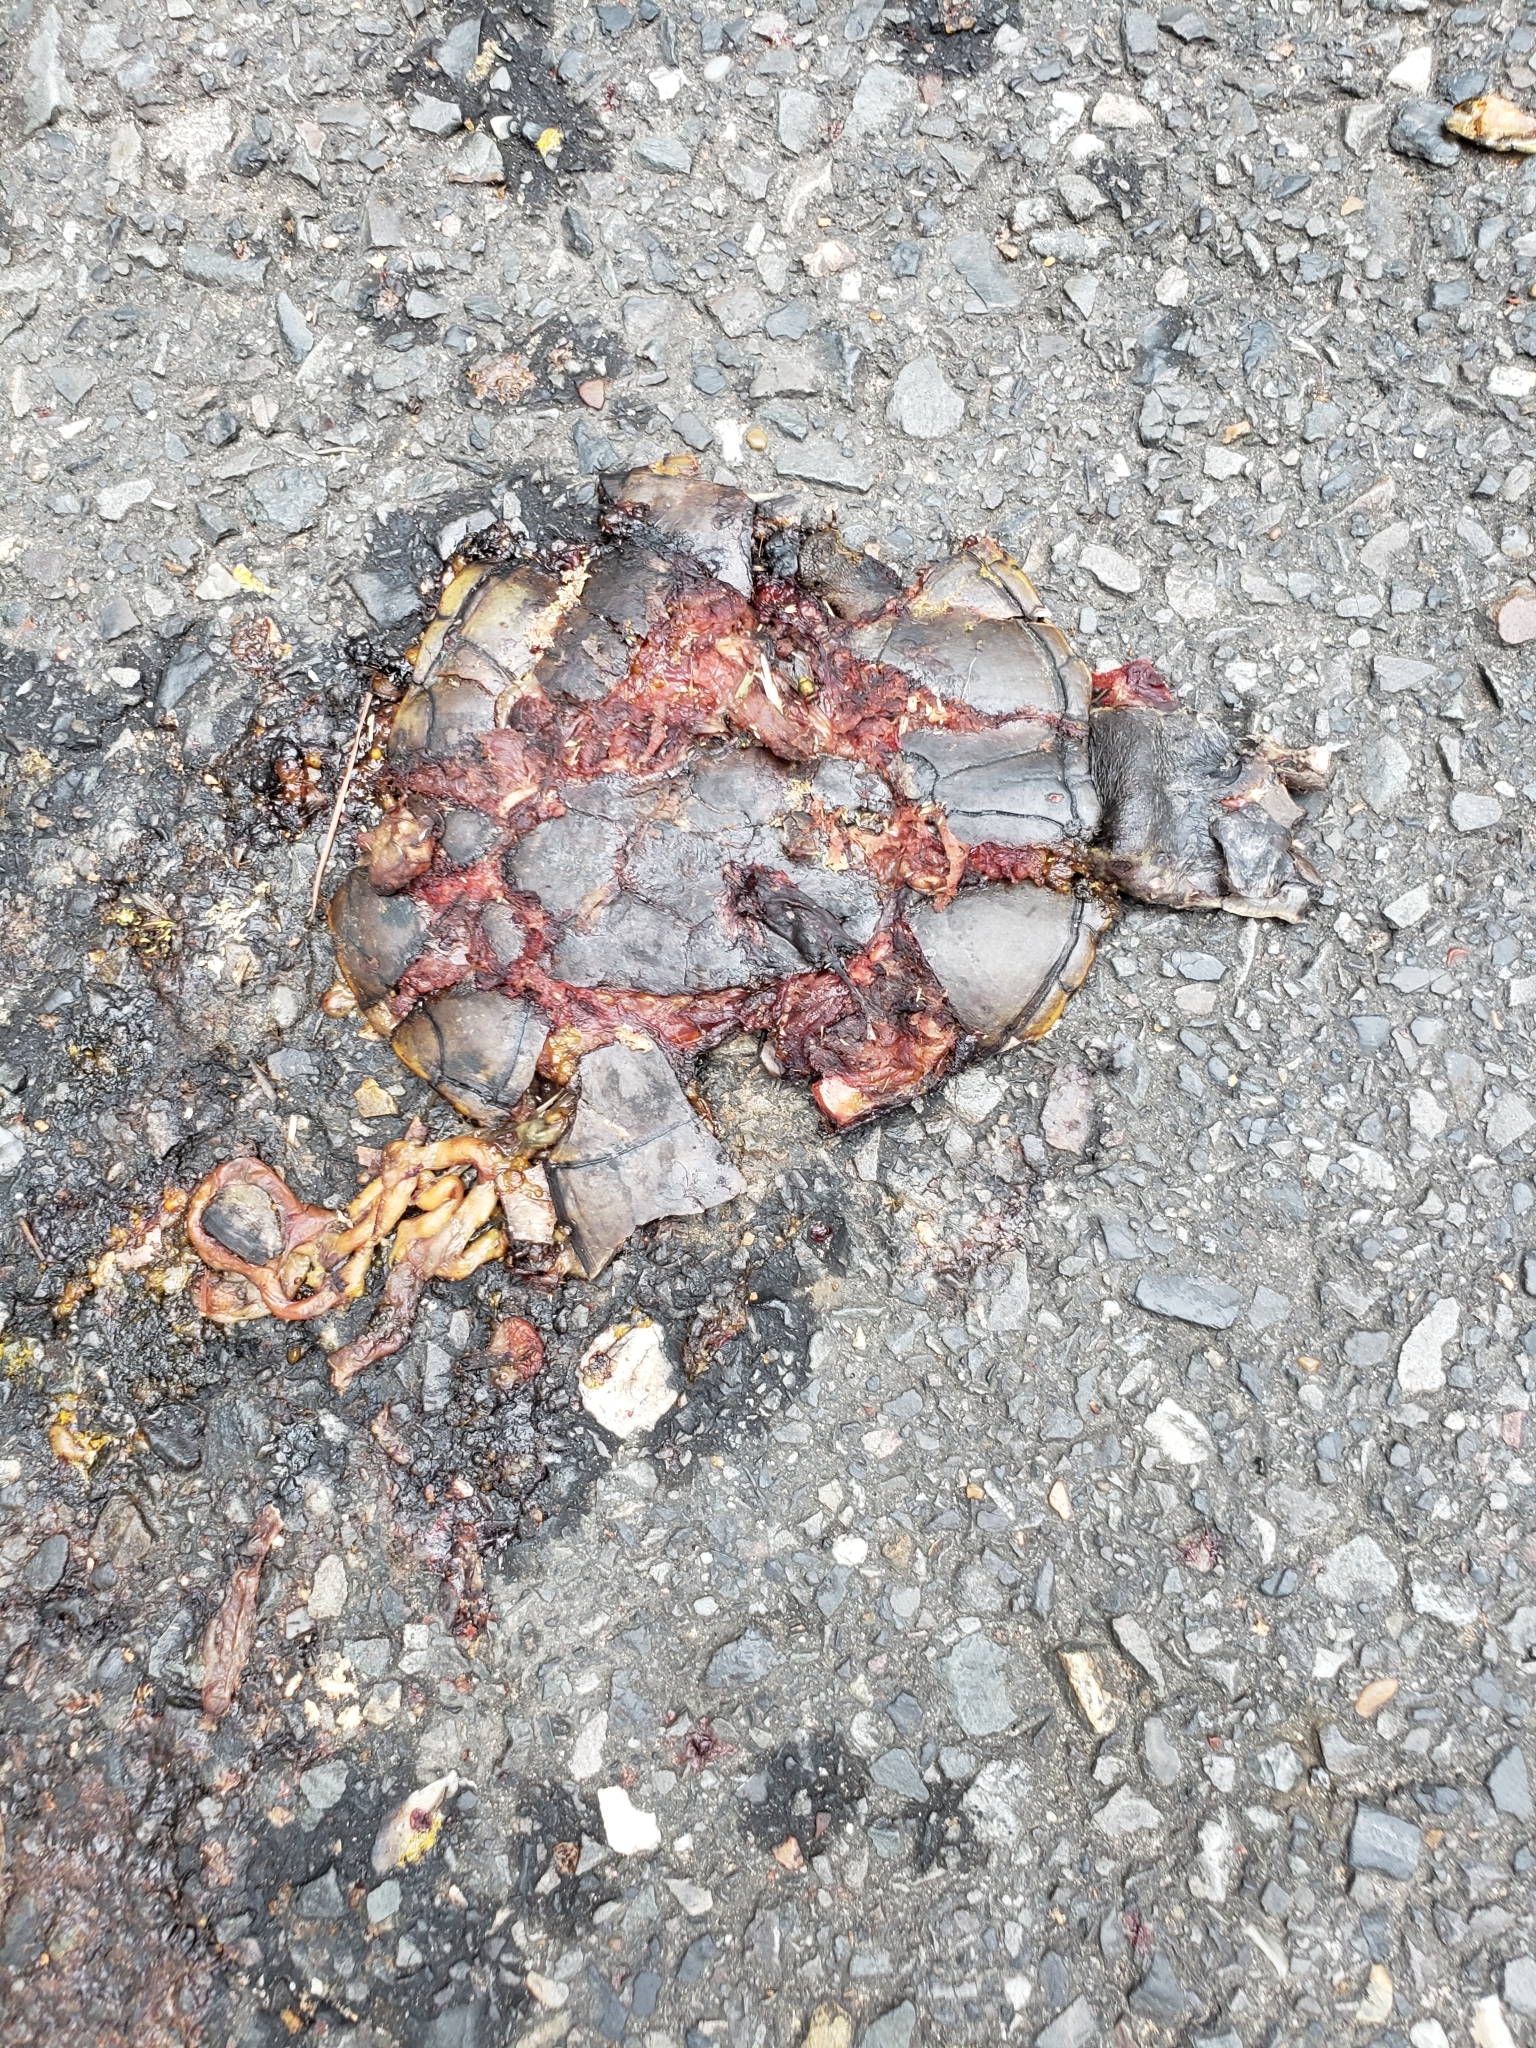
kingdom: Animalia
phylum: Chordata
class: Testudines
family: Kinosternidae
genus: Kinosternon
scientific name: Kinosternon subrubrum
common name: Eastern mud turtle
